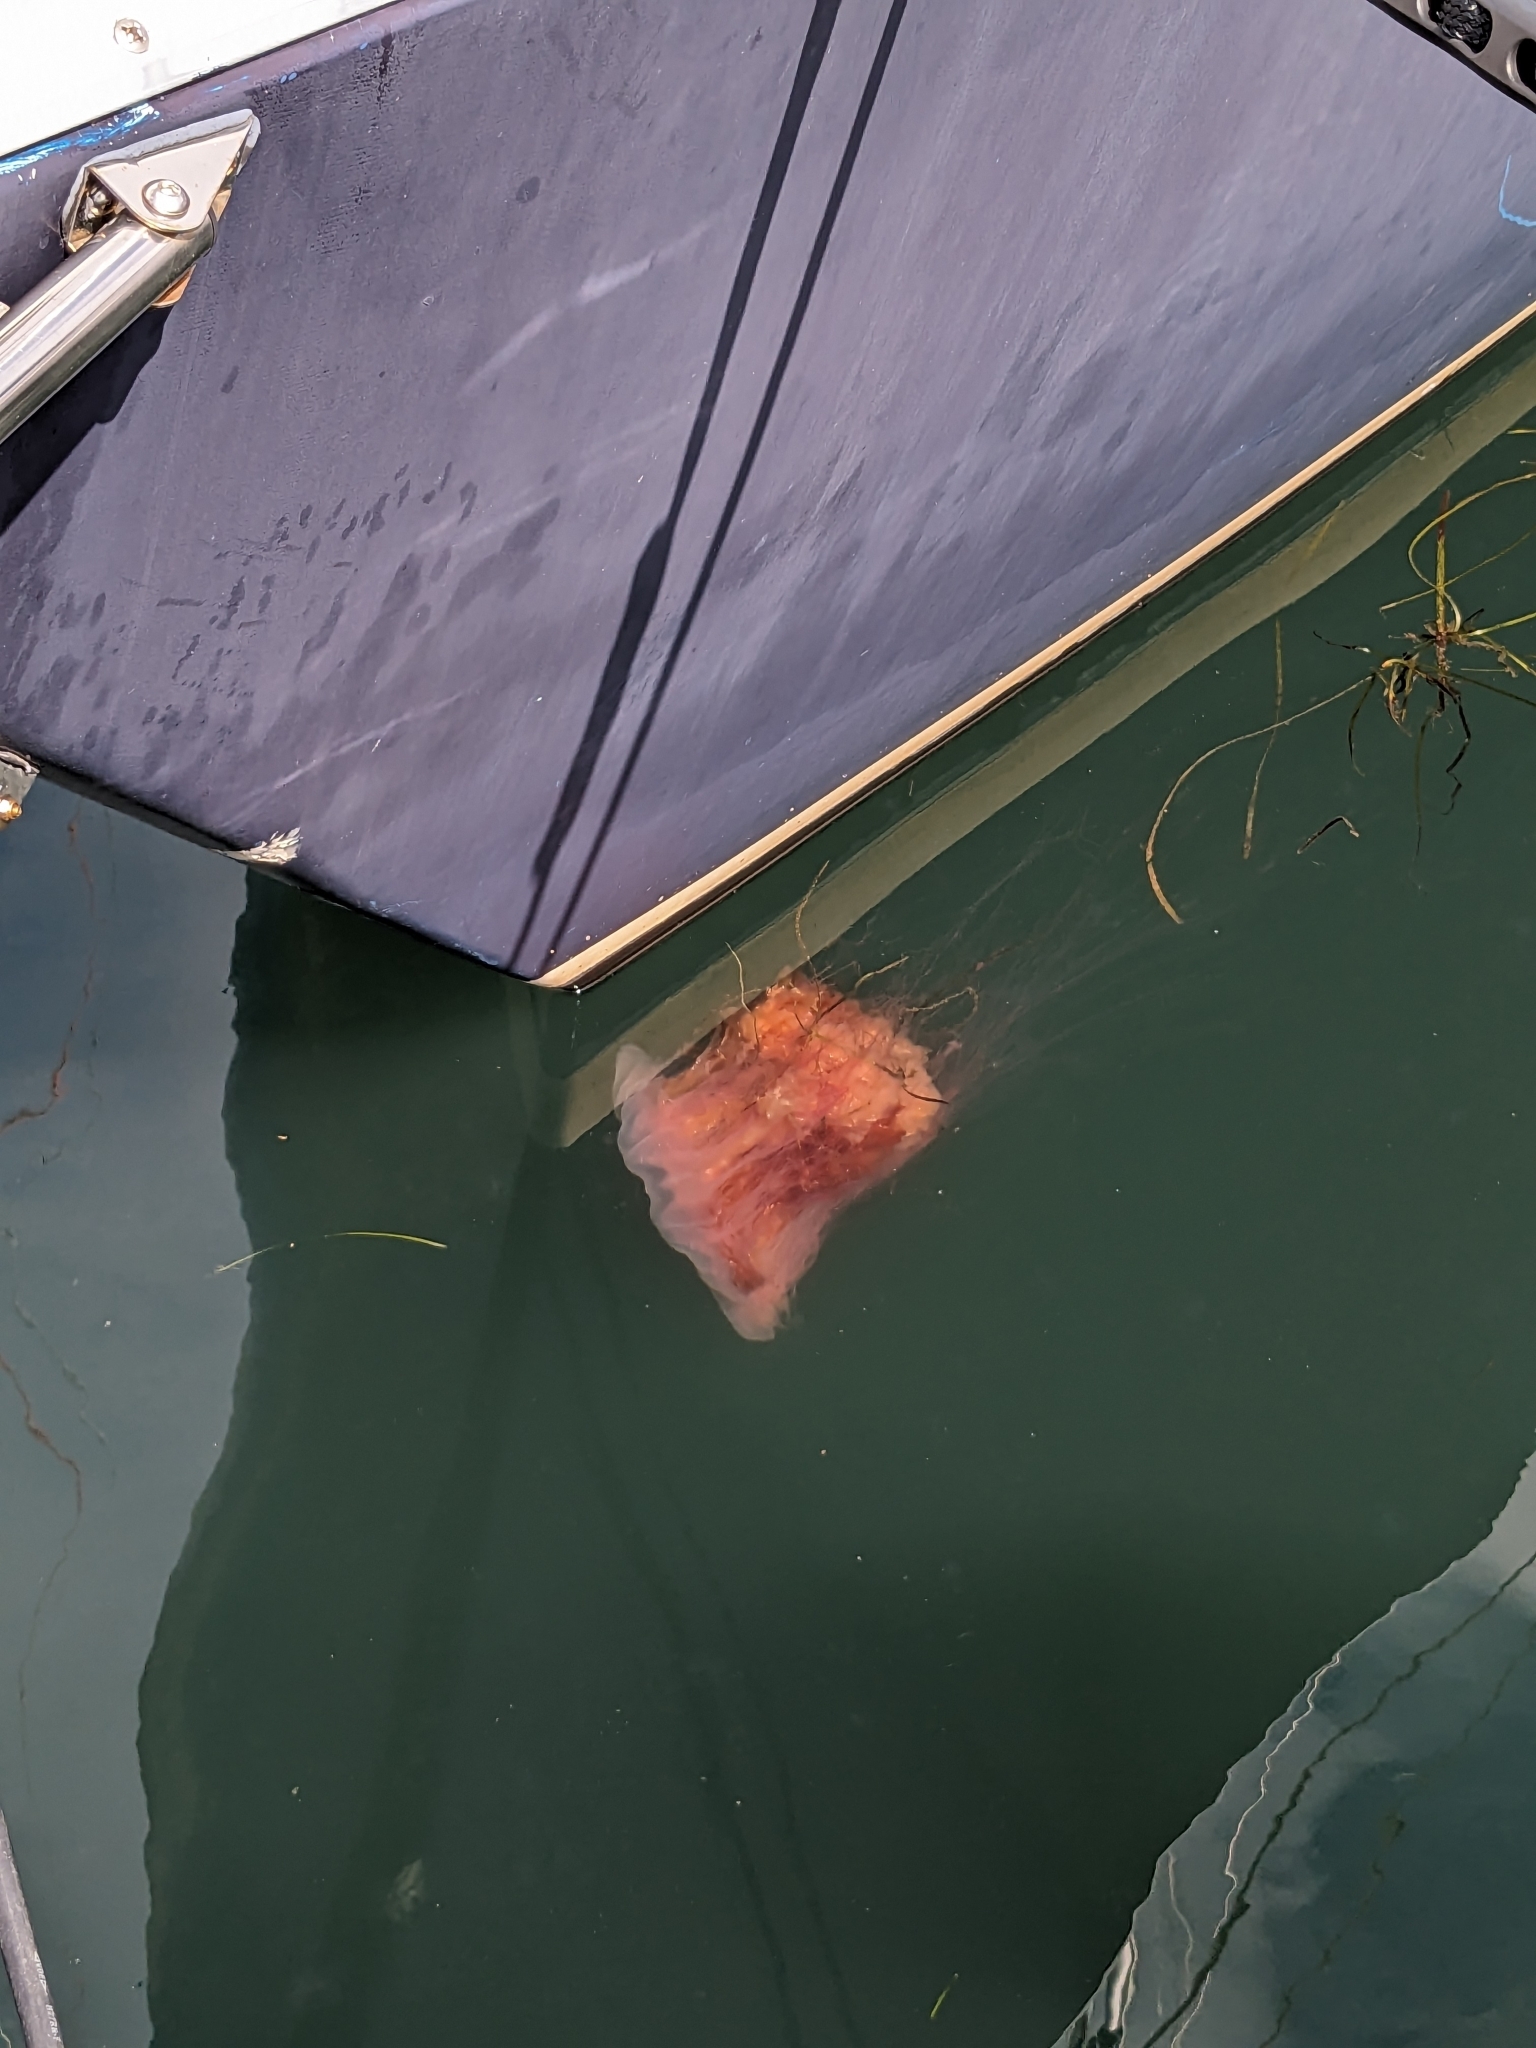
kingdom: Animalia
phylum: Cnidaria
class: Scyphozoa
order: Semaeostomeae
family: Cyaneidae
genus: Cyanea
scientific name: Cyanea capillata
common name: Lion's mane jellyfish
